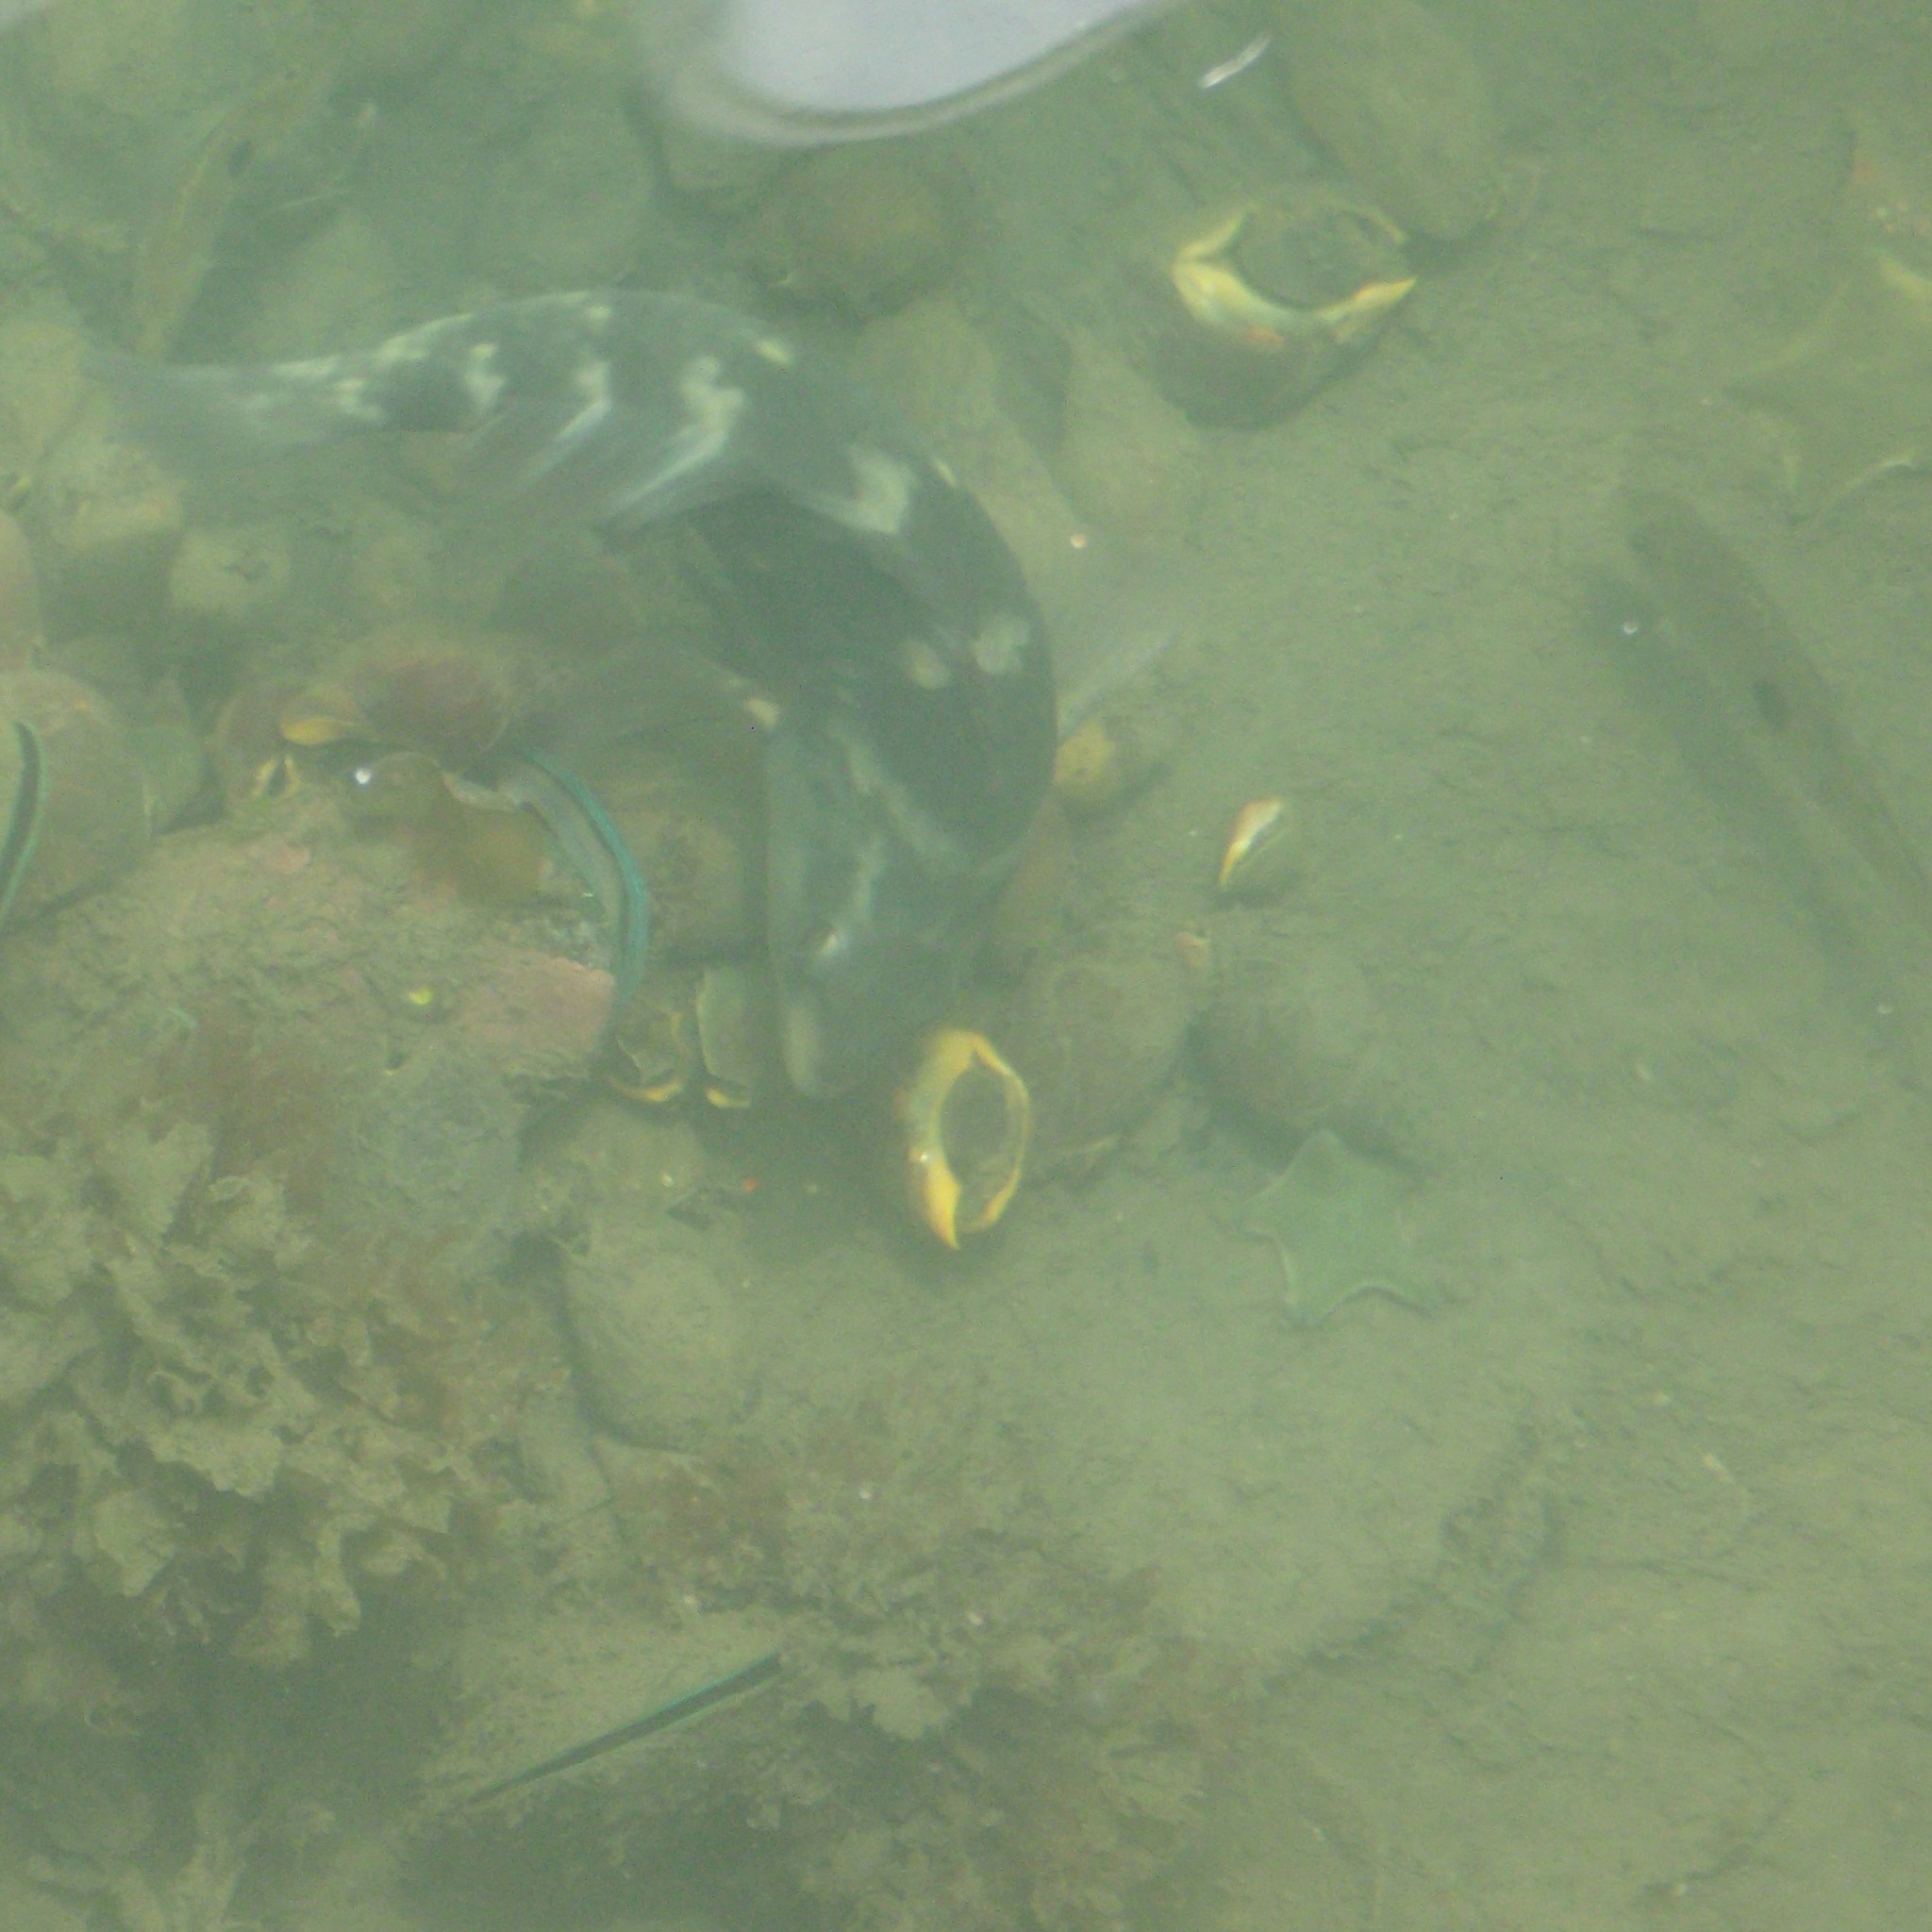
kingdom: Animalia
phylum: Chordata
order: Perciformes
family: Labridae
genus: Notolabrus
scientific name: Notolabrus fucicola
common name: Banded parrotfish
